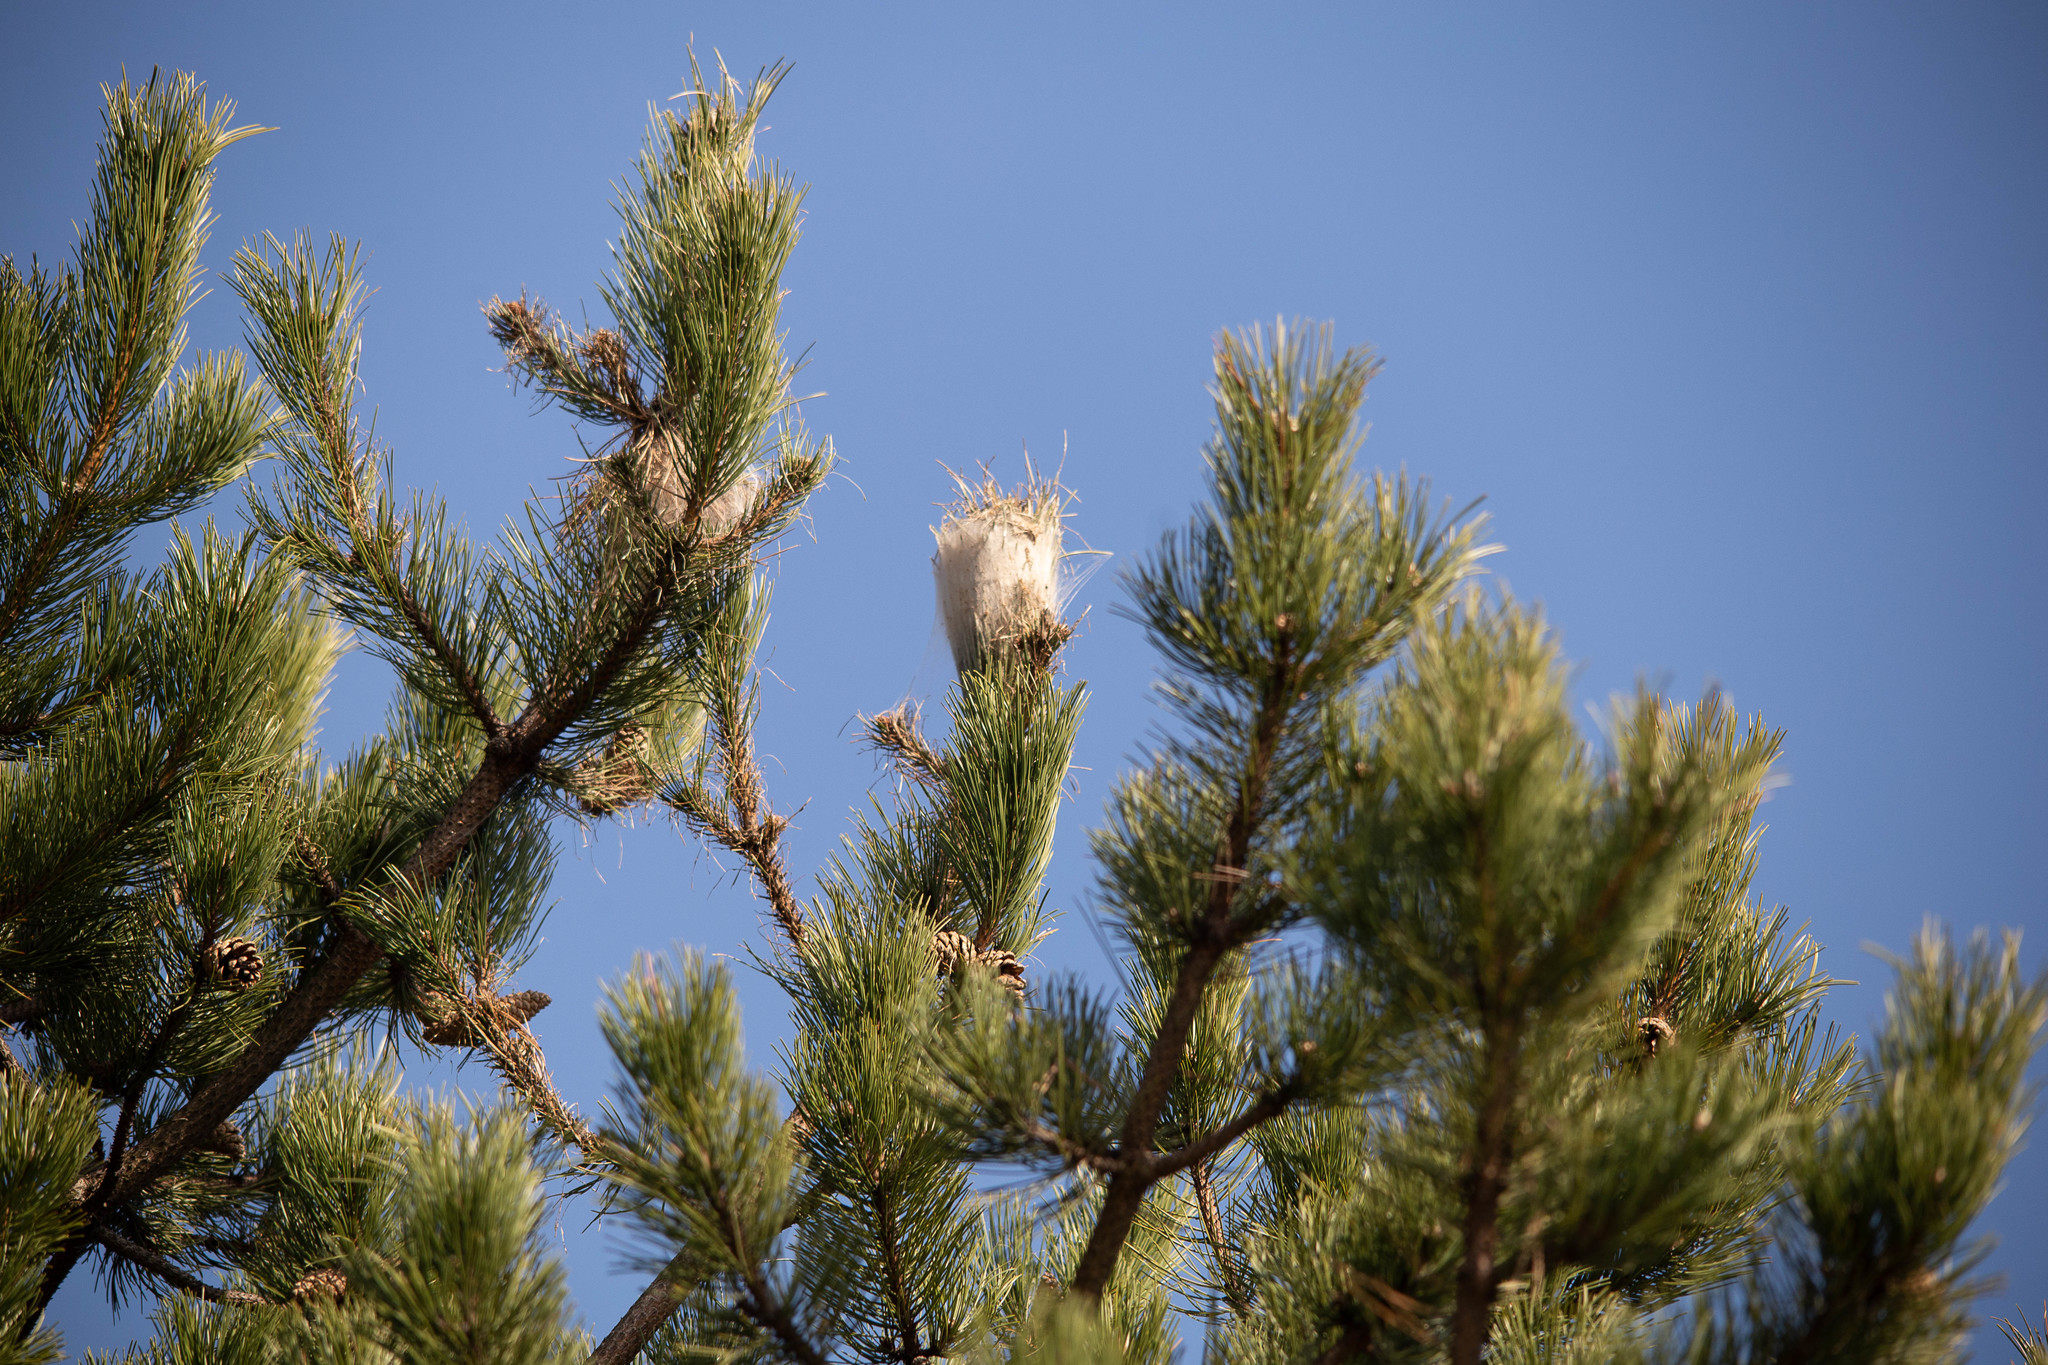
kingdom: Animalia
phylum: Arthropoda
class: Insecta
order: Lepidoptera
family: Notodontidae
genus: Thaumetopoea
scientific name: Thaumetopoea pityocampa
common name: Pine processionary
